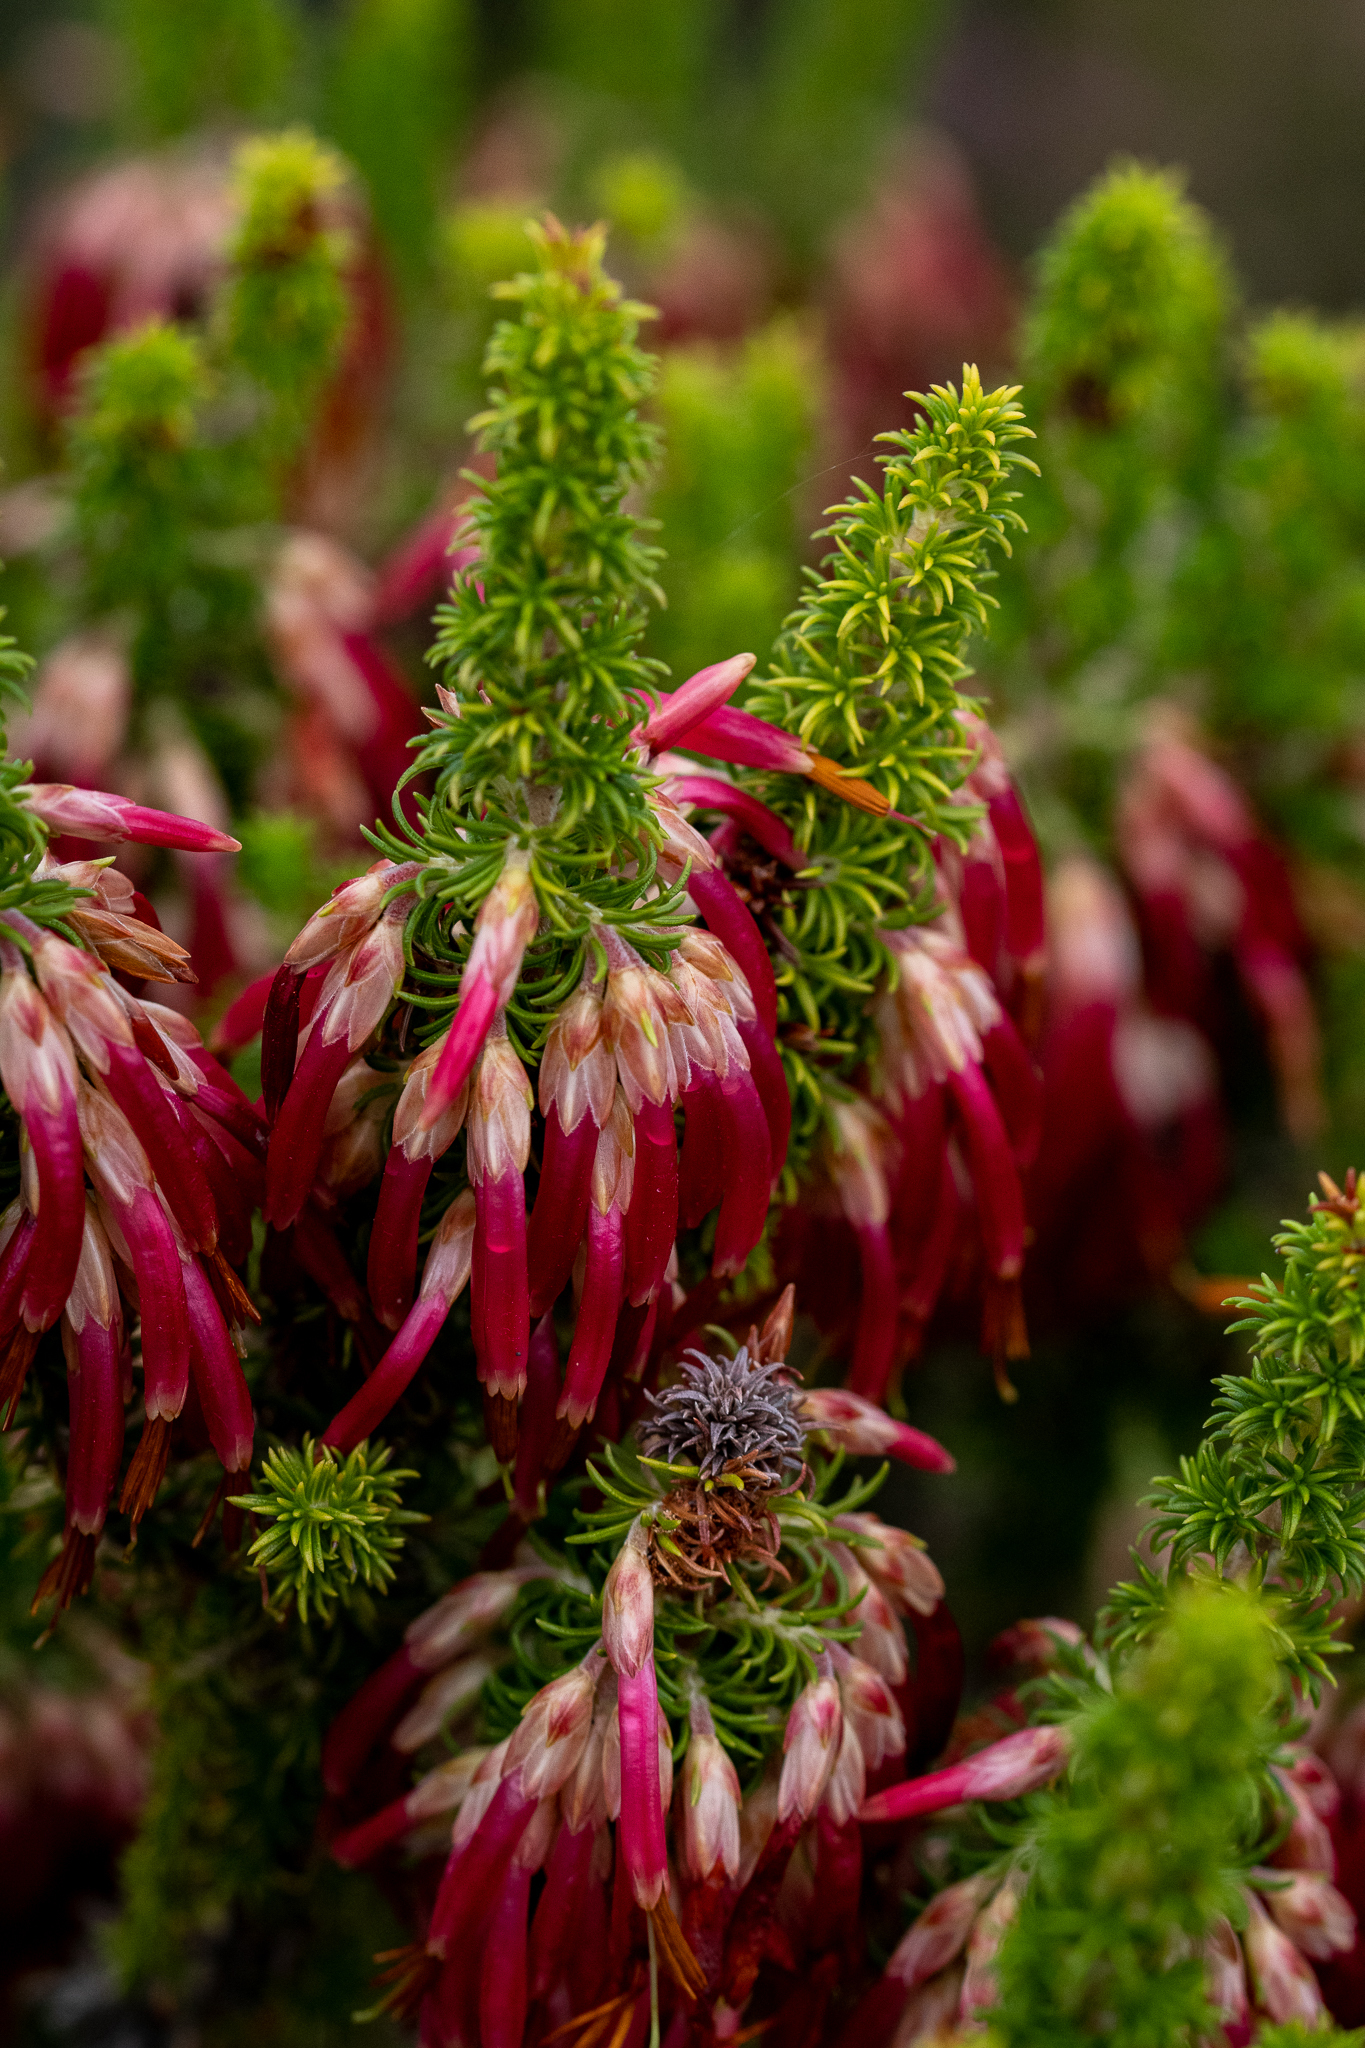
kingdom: Plantae
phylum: Tracheophyta
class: Magnoliopsida
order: Ericales
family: Ericaceae
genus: Erica
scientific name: Erica coccinea
